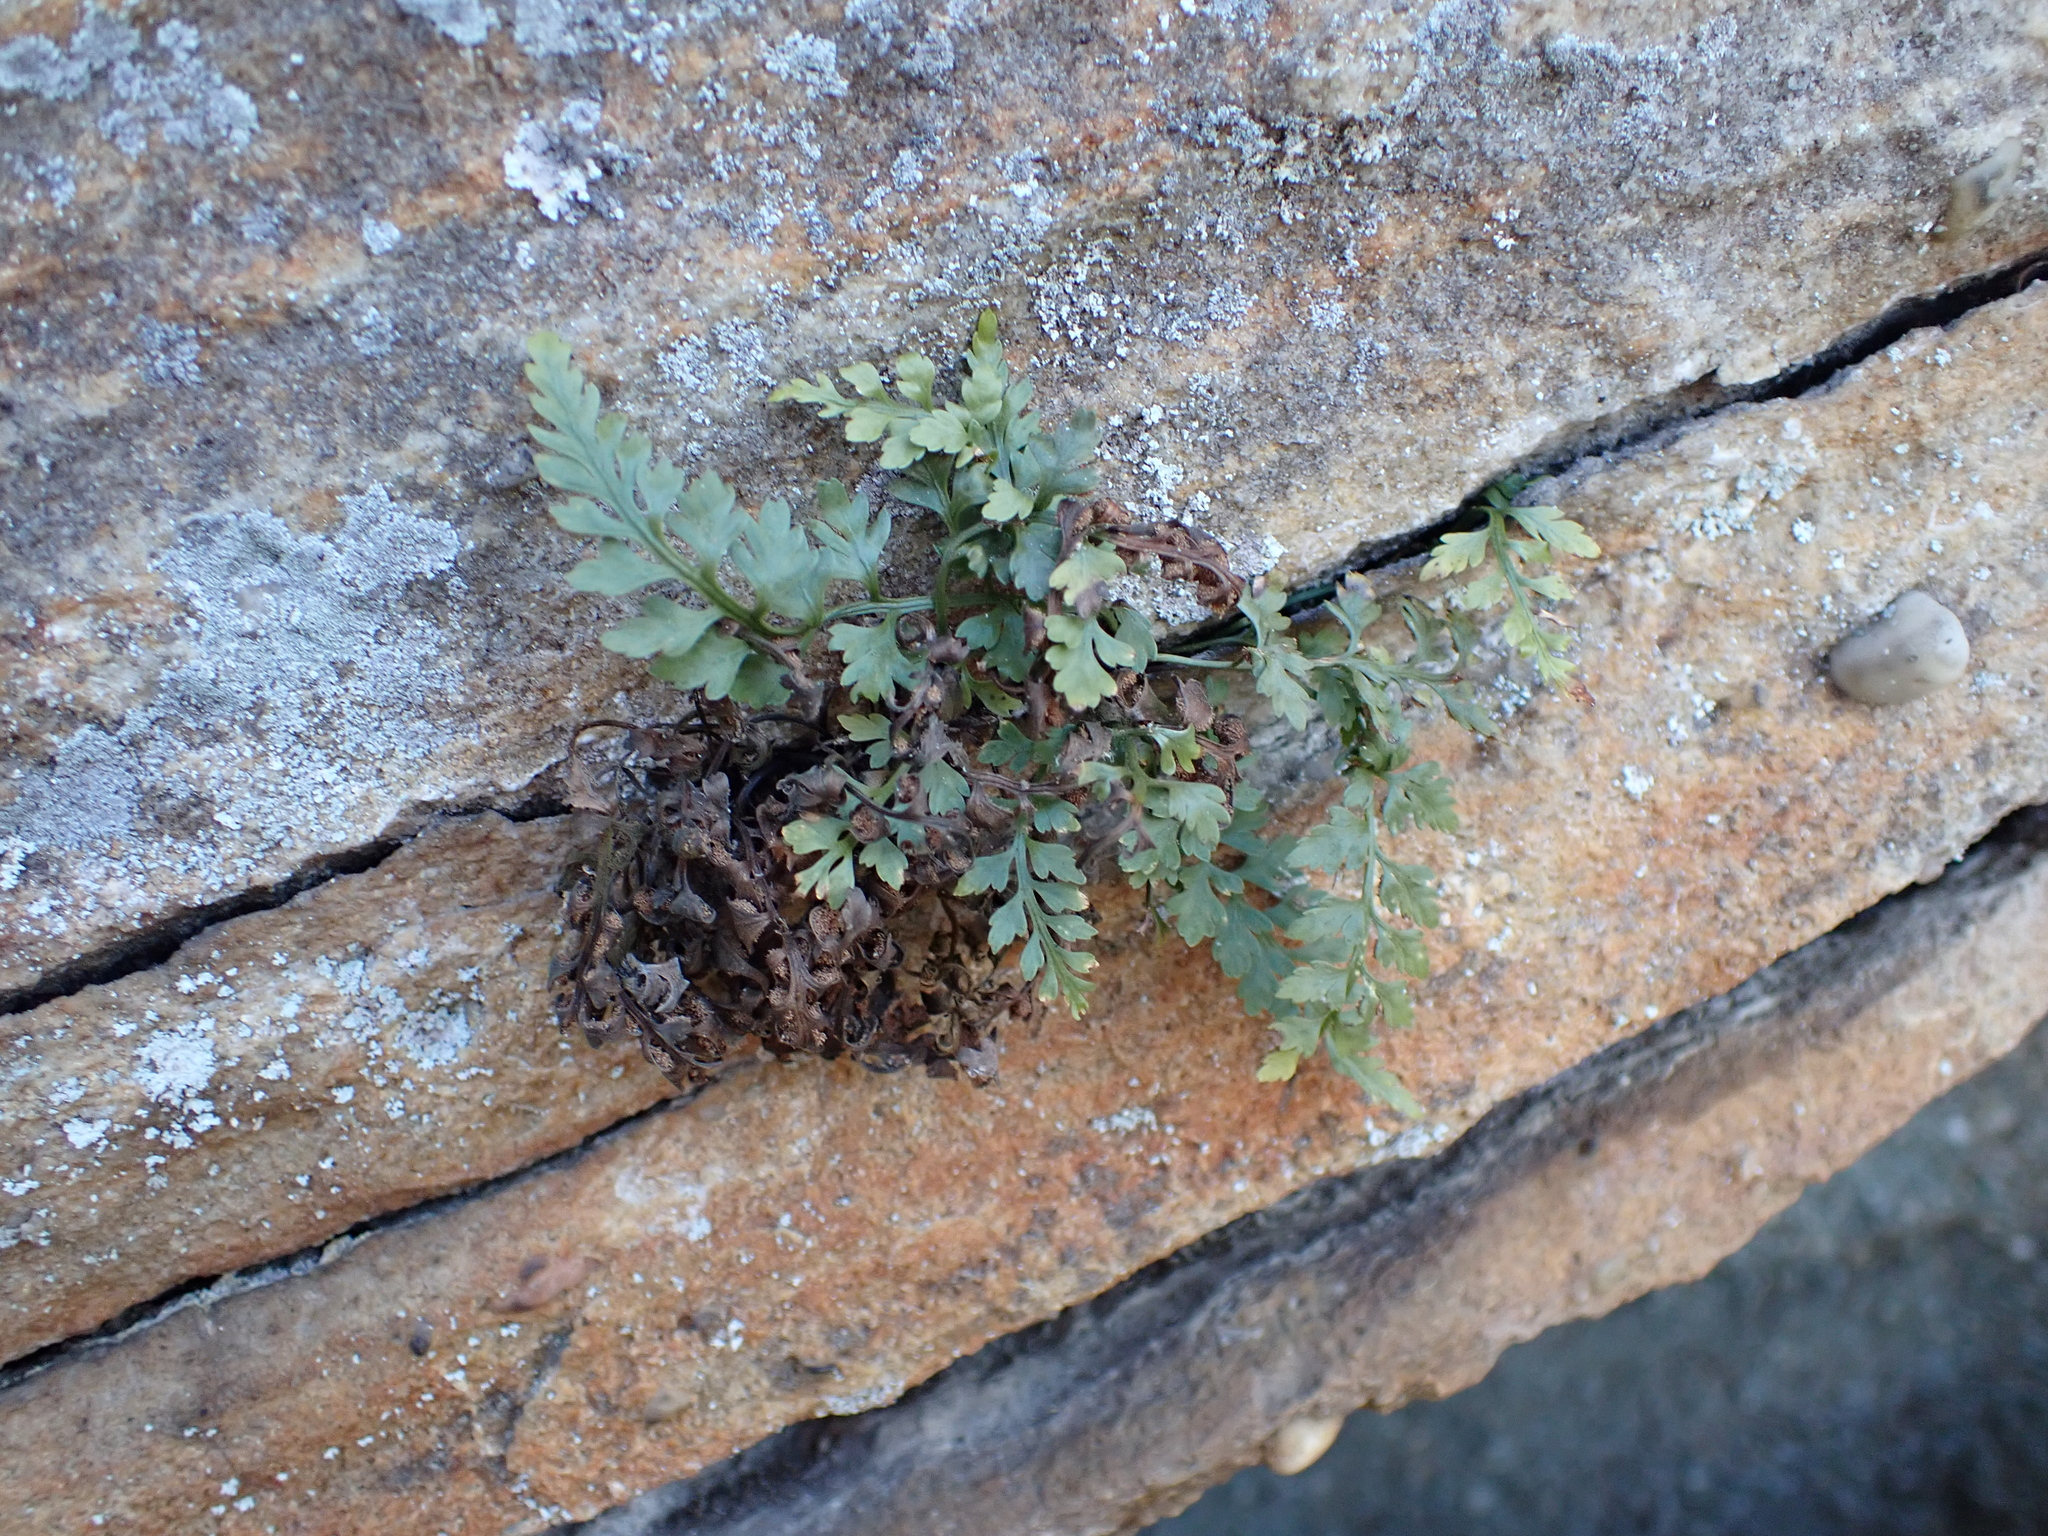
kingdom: Plantae
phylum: Tracheophyta
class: Polypodiopsida
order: Polypodiales
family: Aspleniaceae
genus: Asplenium
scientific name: Asplenium montanum
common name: Mountain spleenwort
